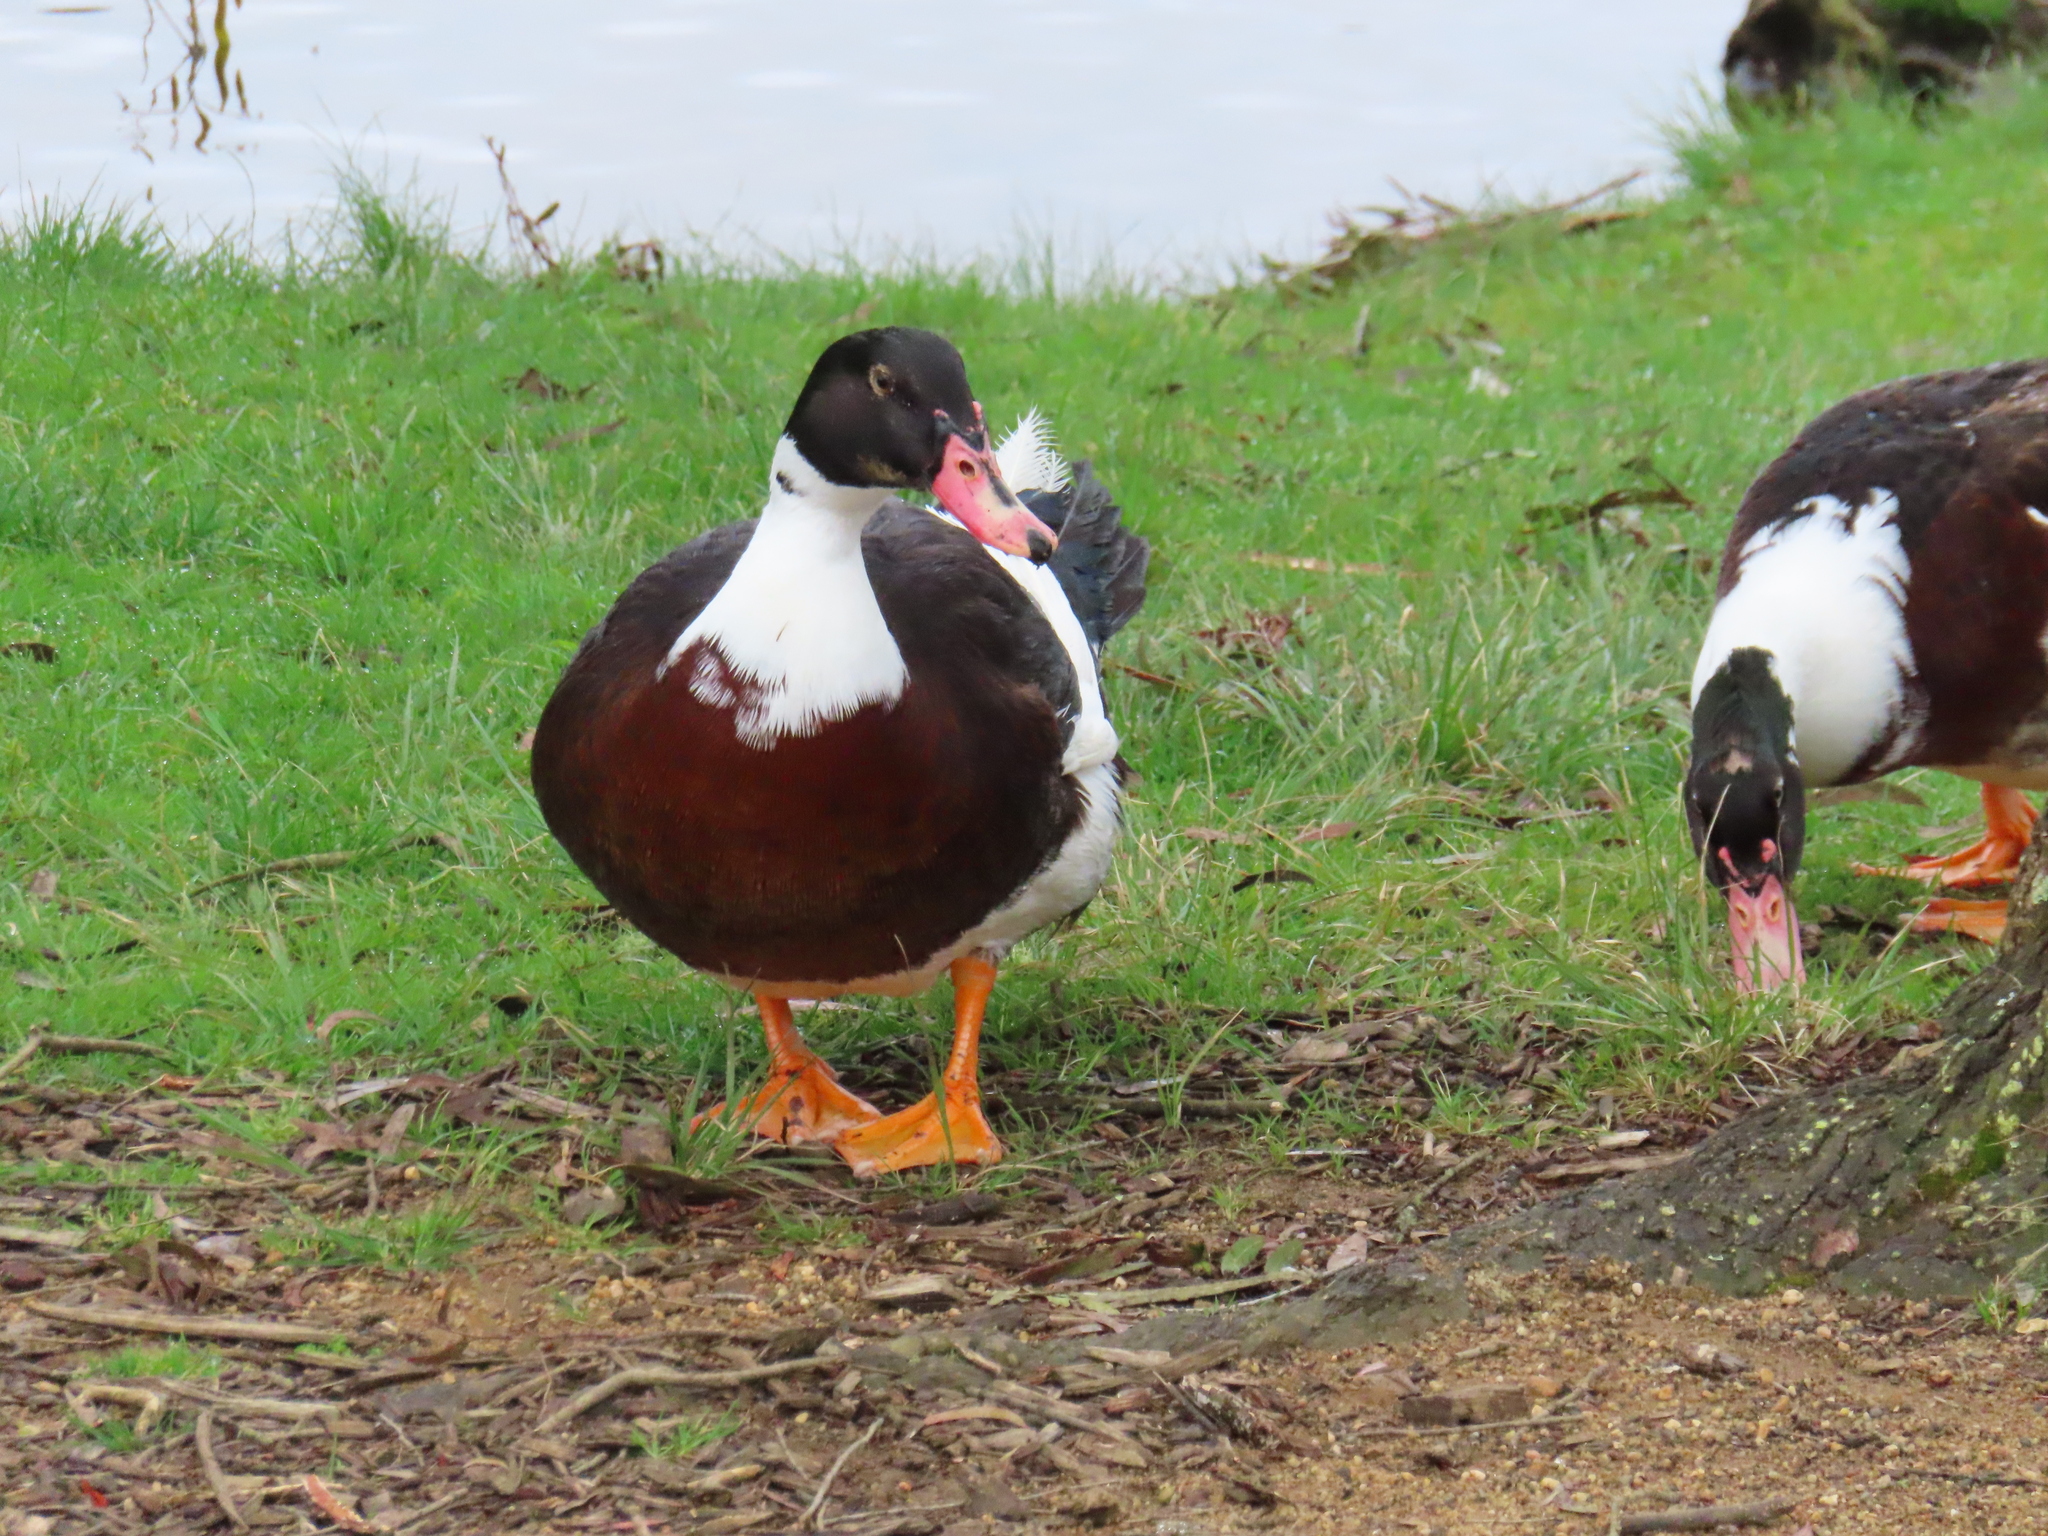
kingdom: Animalia
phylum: Chordata
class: Aves
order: Anseriformes
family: Anatidae
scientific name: Anatidae
